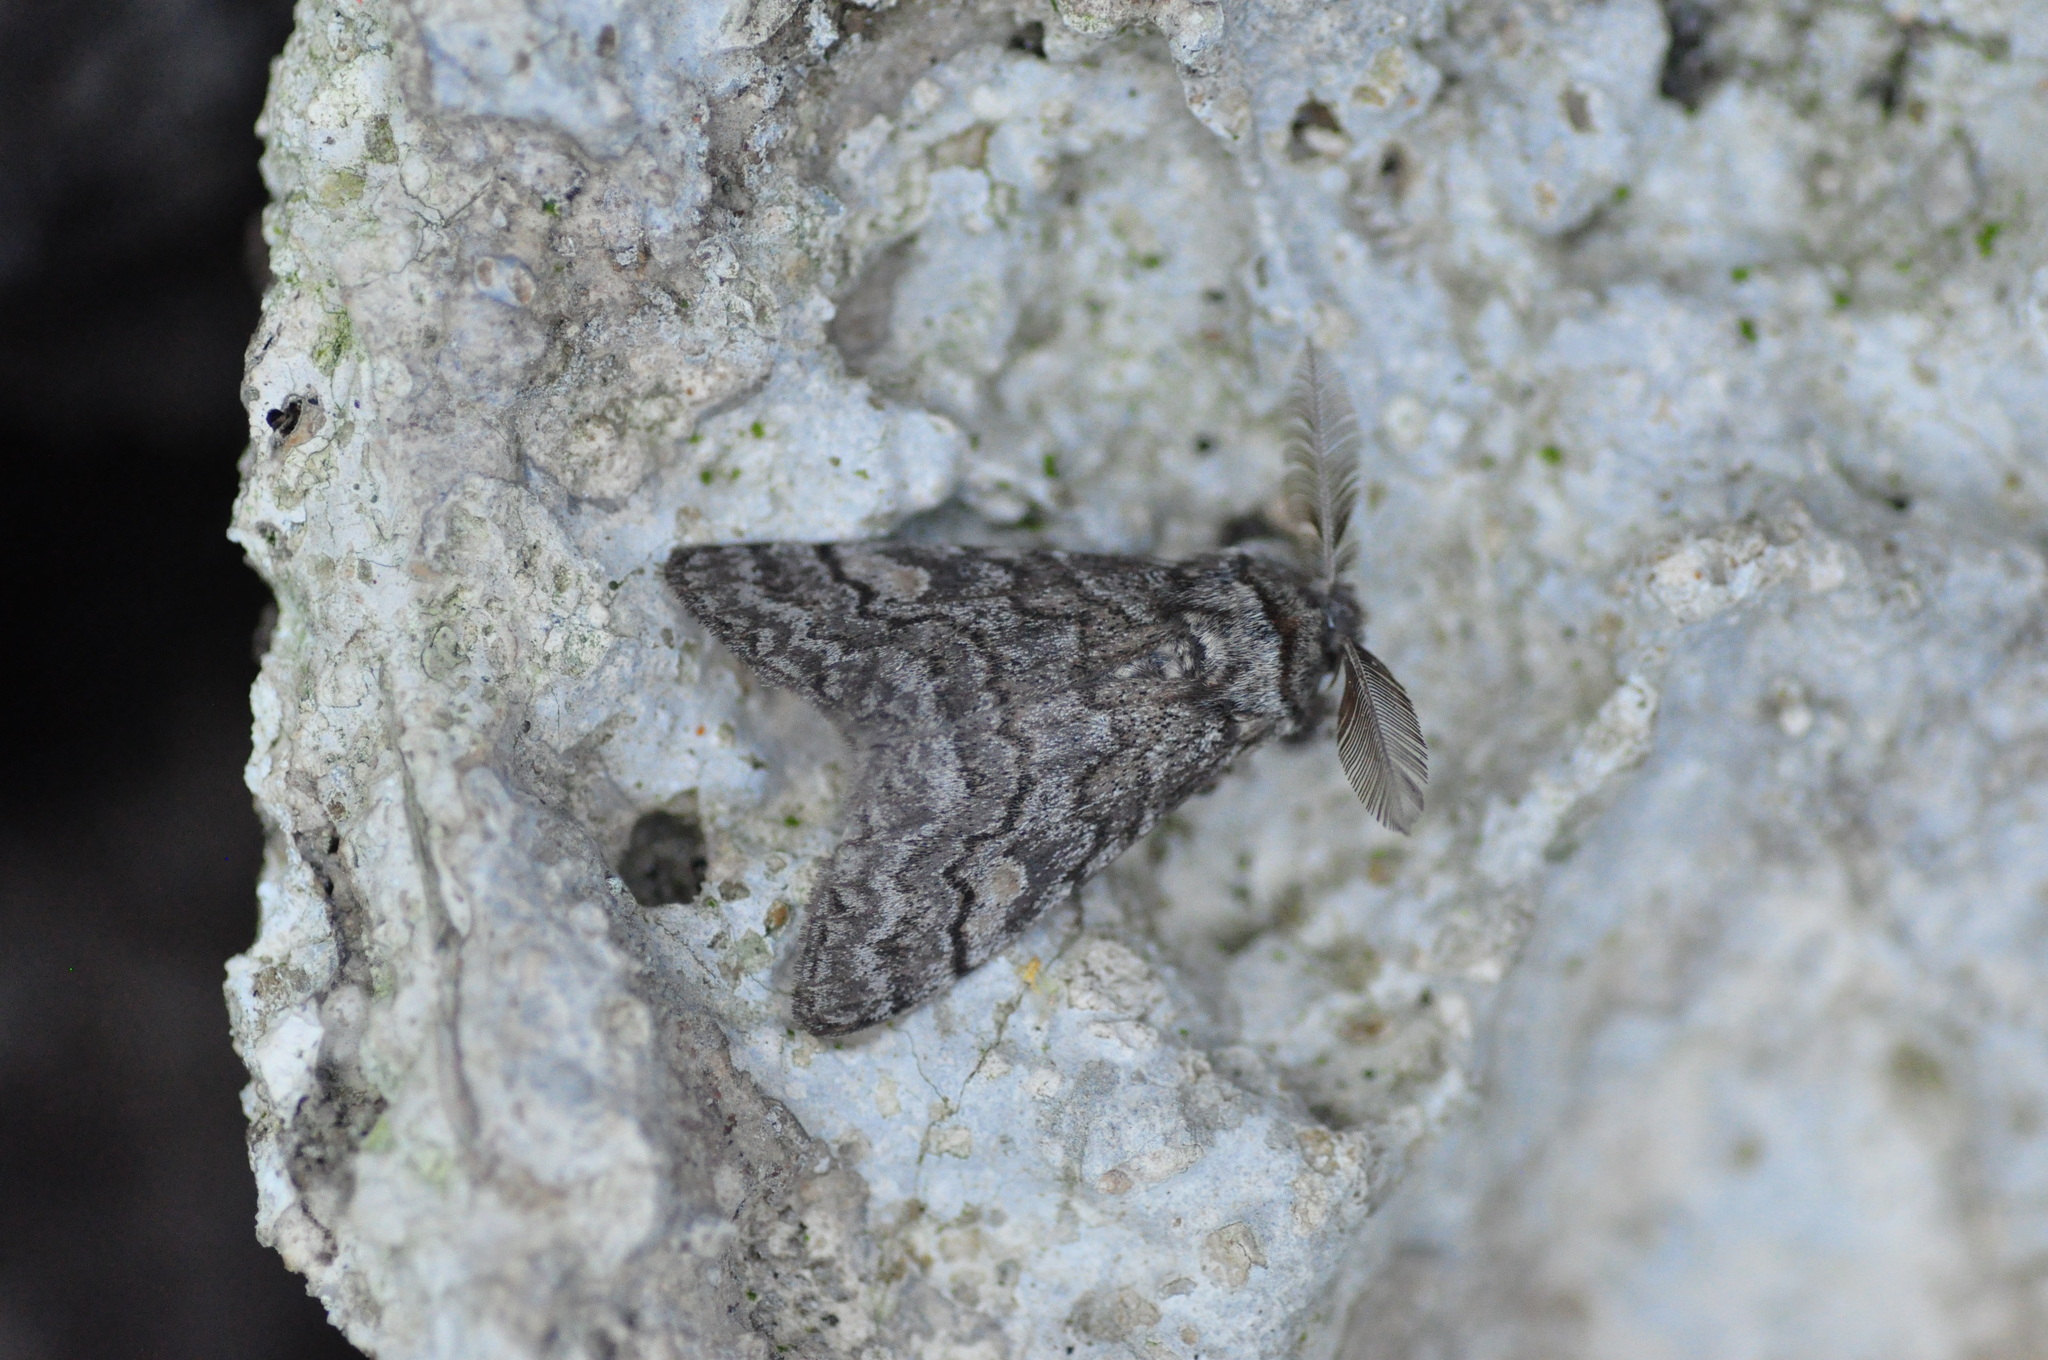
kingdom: Animalia
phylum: Arthropoda
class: Insecta
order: Lepidoptera
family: Erebidae
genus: Calliteara
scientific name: Calliteara
